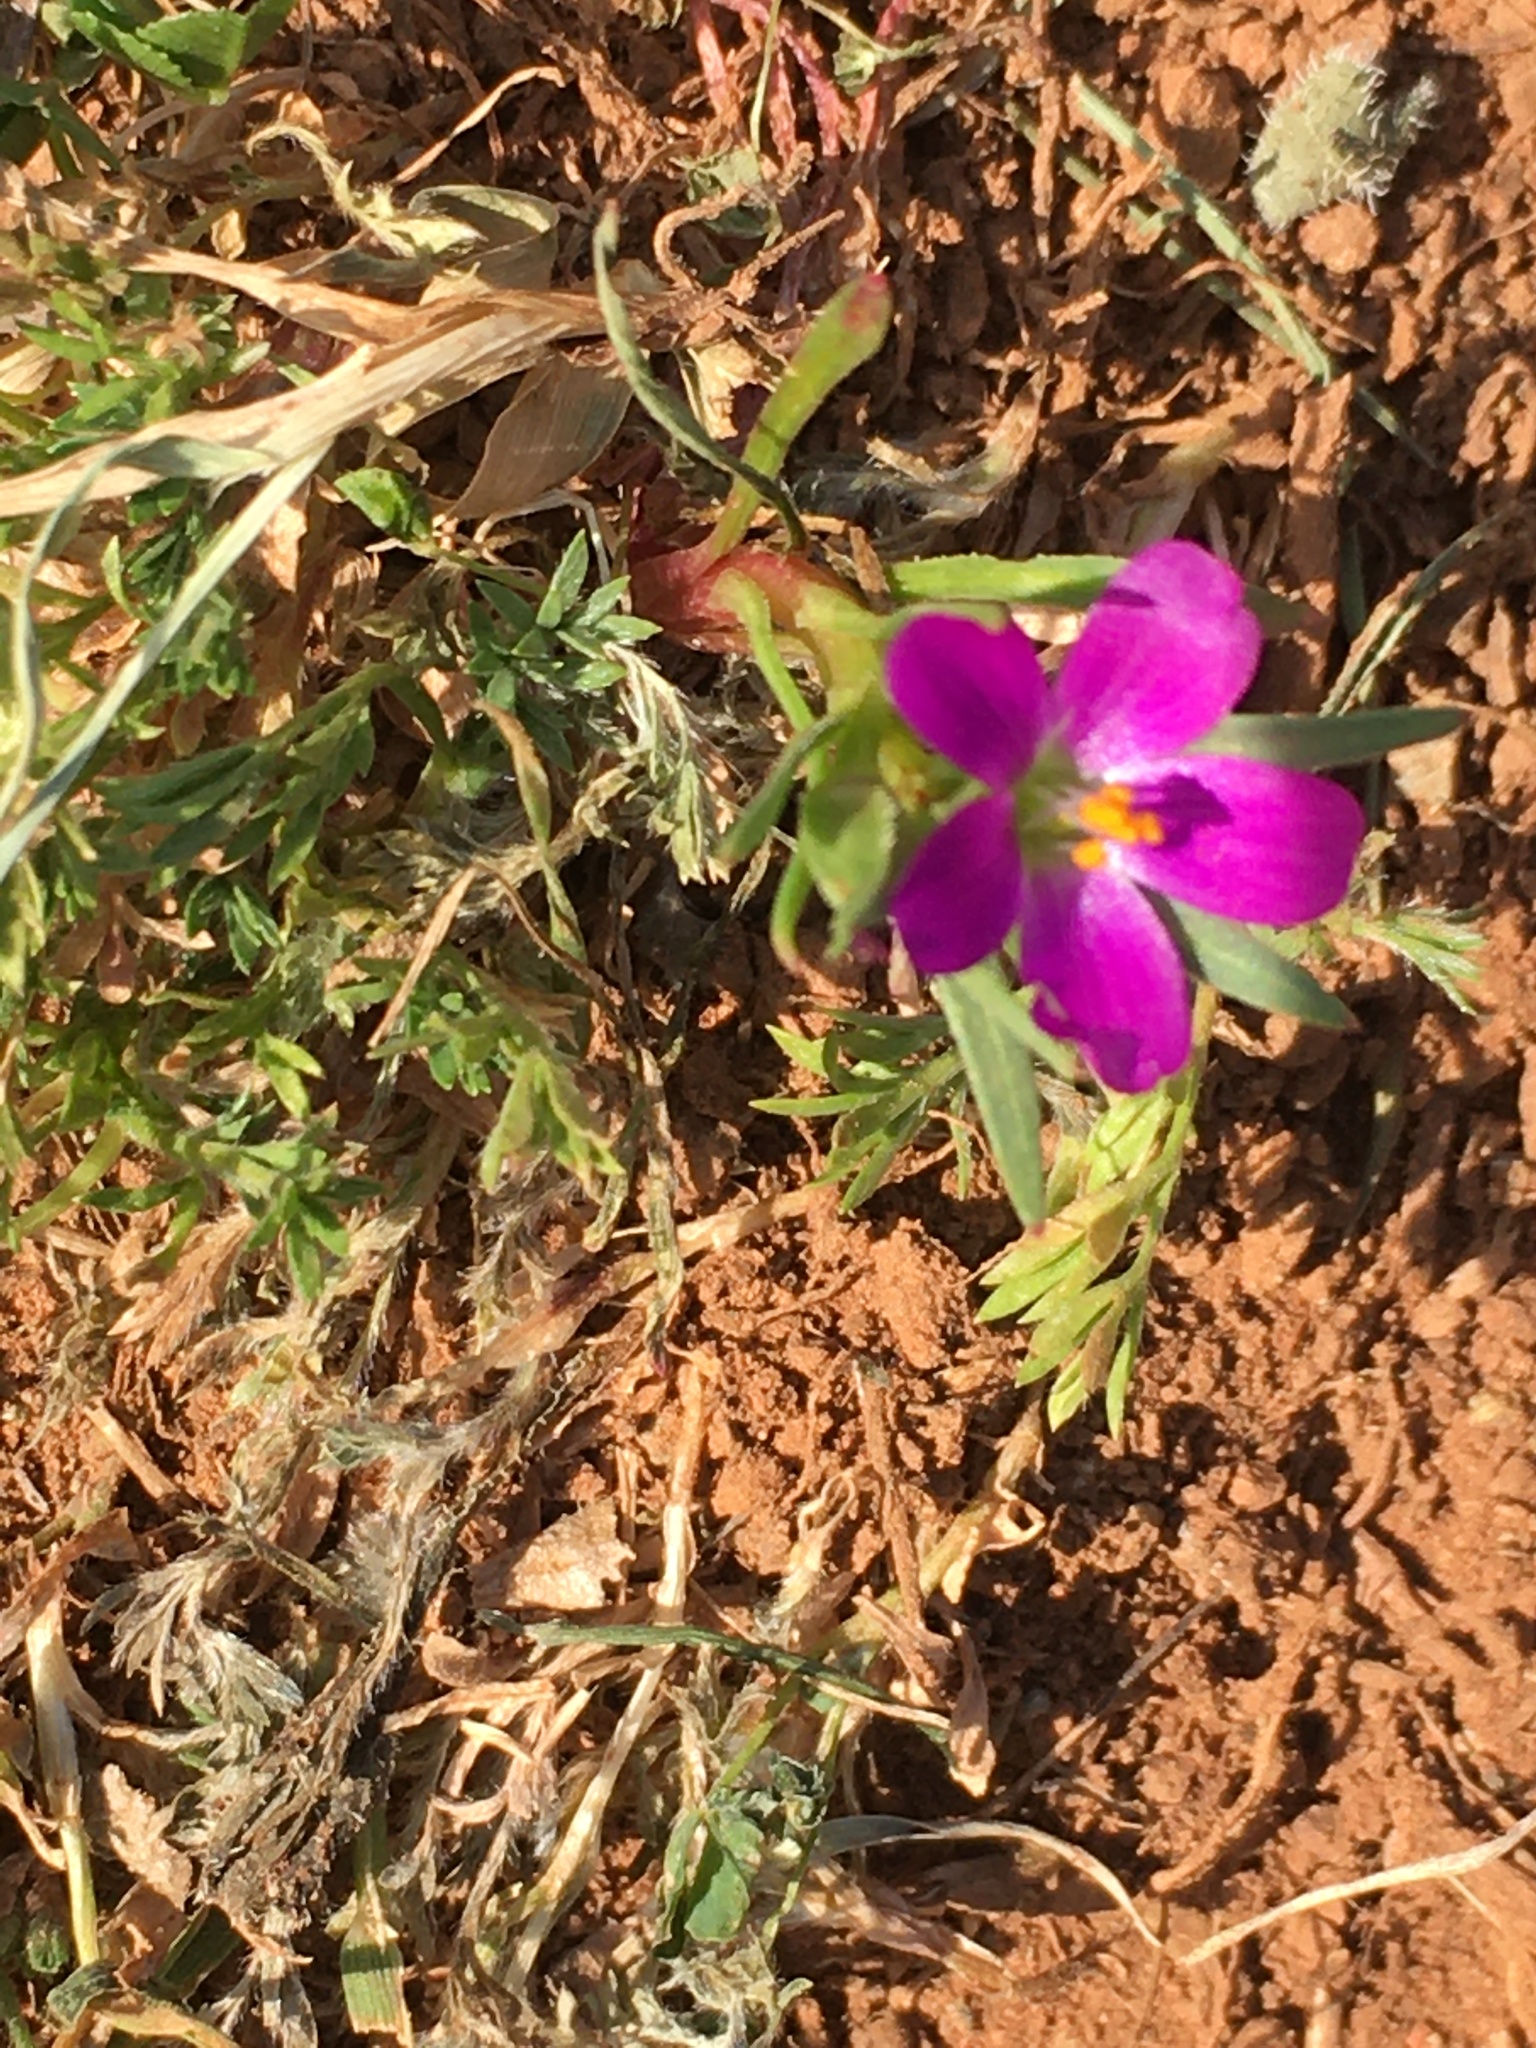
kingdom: Plantae
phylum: Tracheophyta
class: Magnoliopsida
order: Caryophyllales
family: Montiaceae
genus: Calandrinia
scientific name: Calandrinia menziesii
